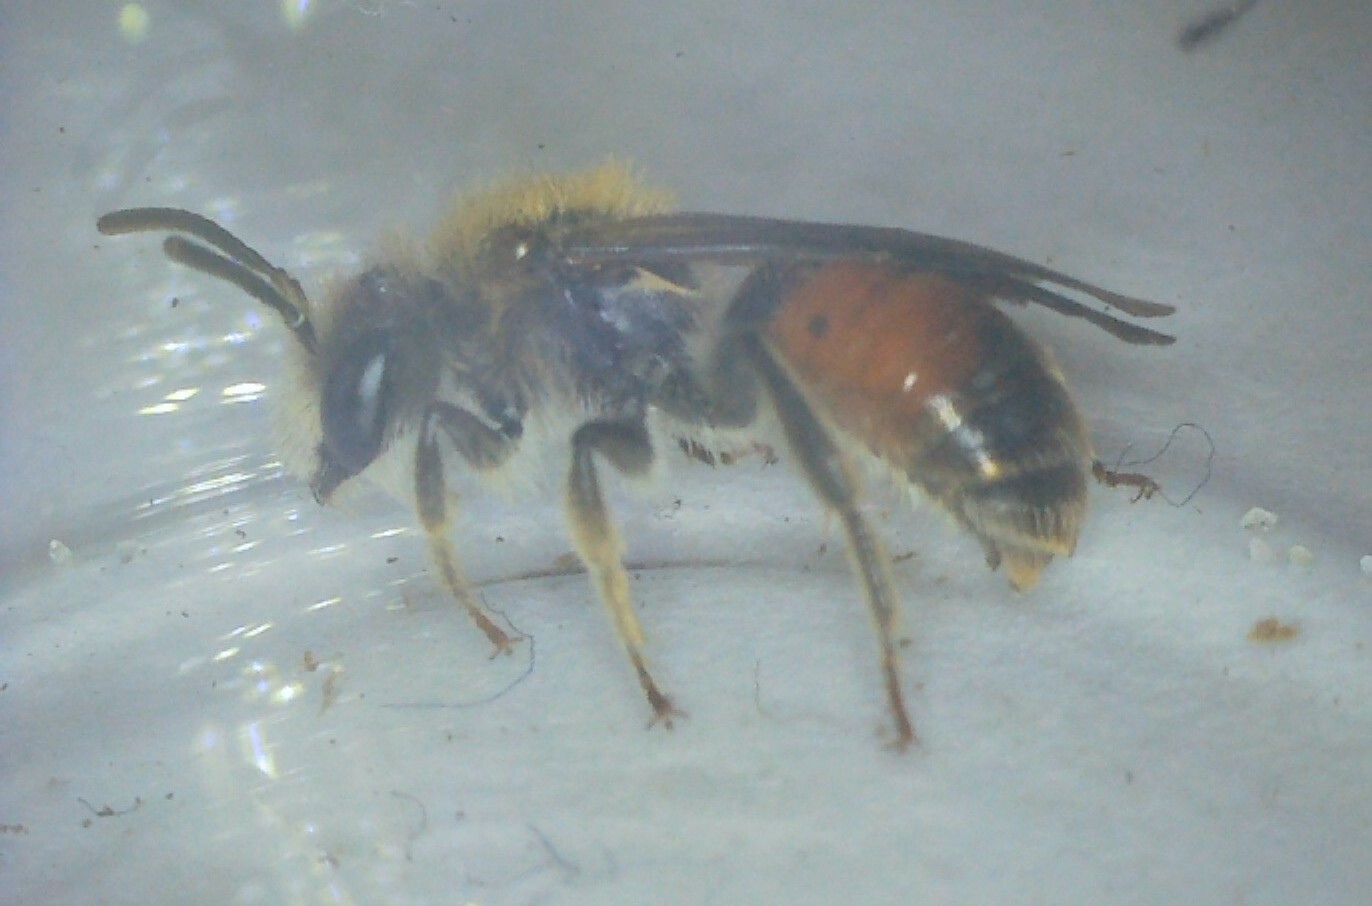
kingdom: Animalia
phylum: Arthropoda
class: Insecta
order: Hymenoptera
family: Andrenidae
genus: Andrena
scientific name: Andrena labiata
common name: Red-girdled mining bee
